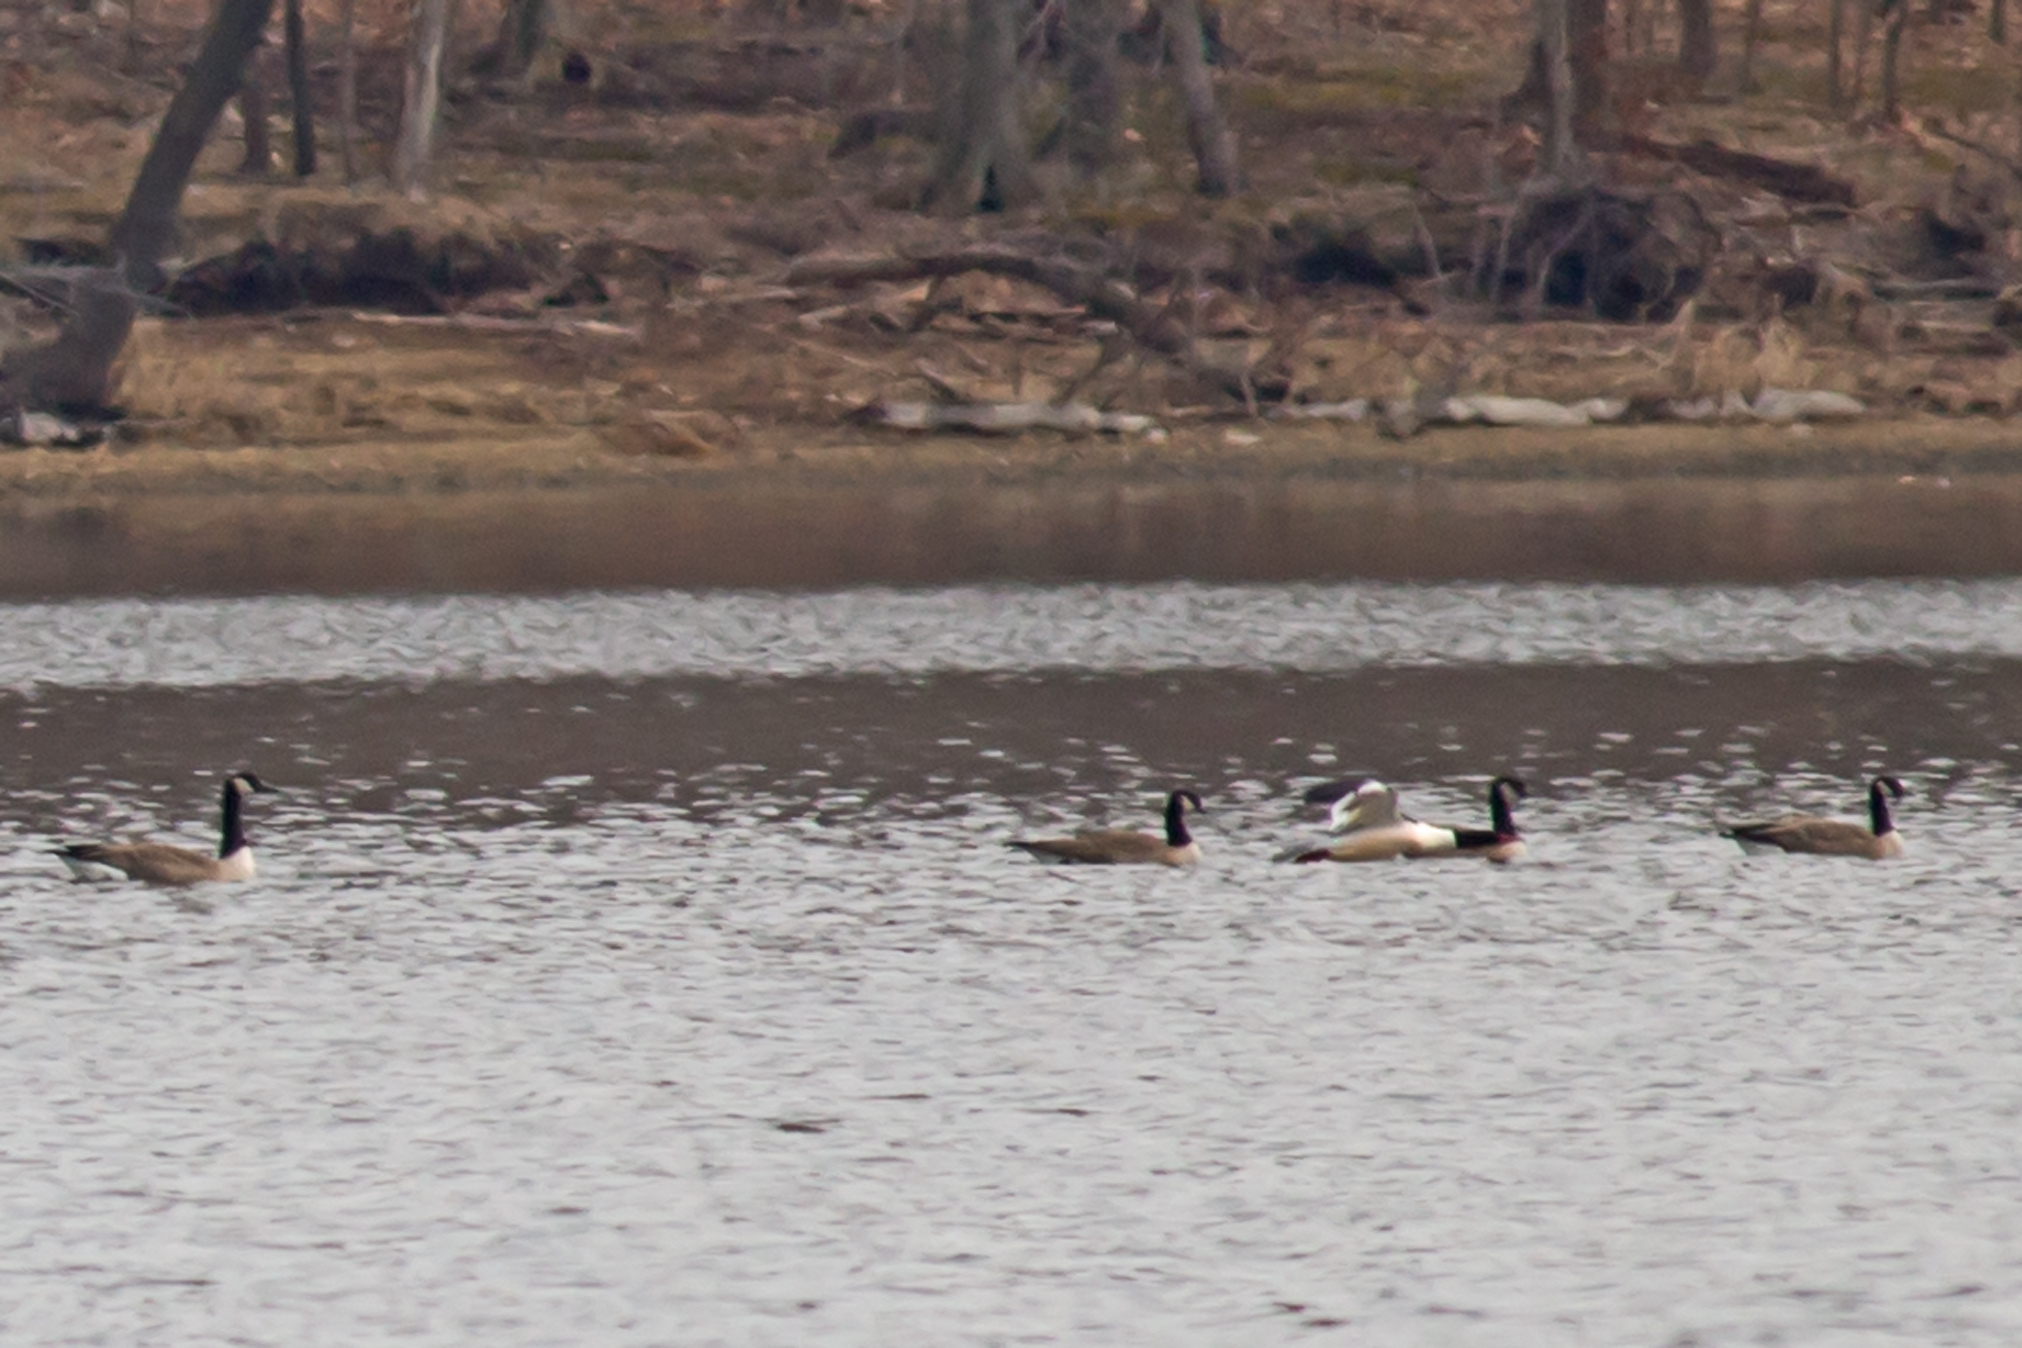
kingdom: Animalia
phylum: Chordata
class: Aves
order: Anseriformes
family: Anatidae
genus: Branta
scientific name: Branta hutchinsii
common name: Cackling goose
